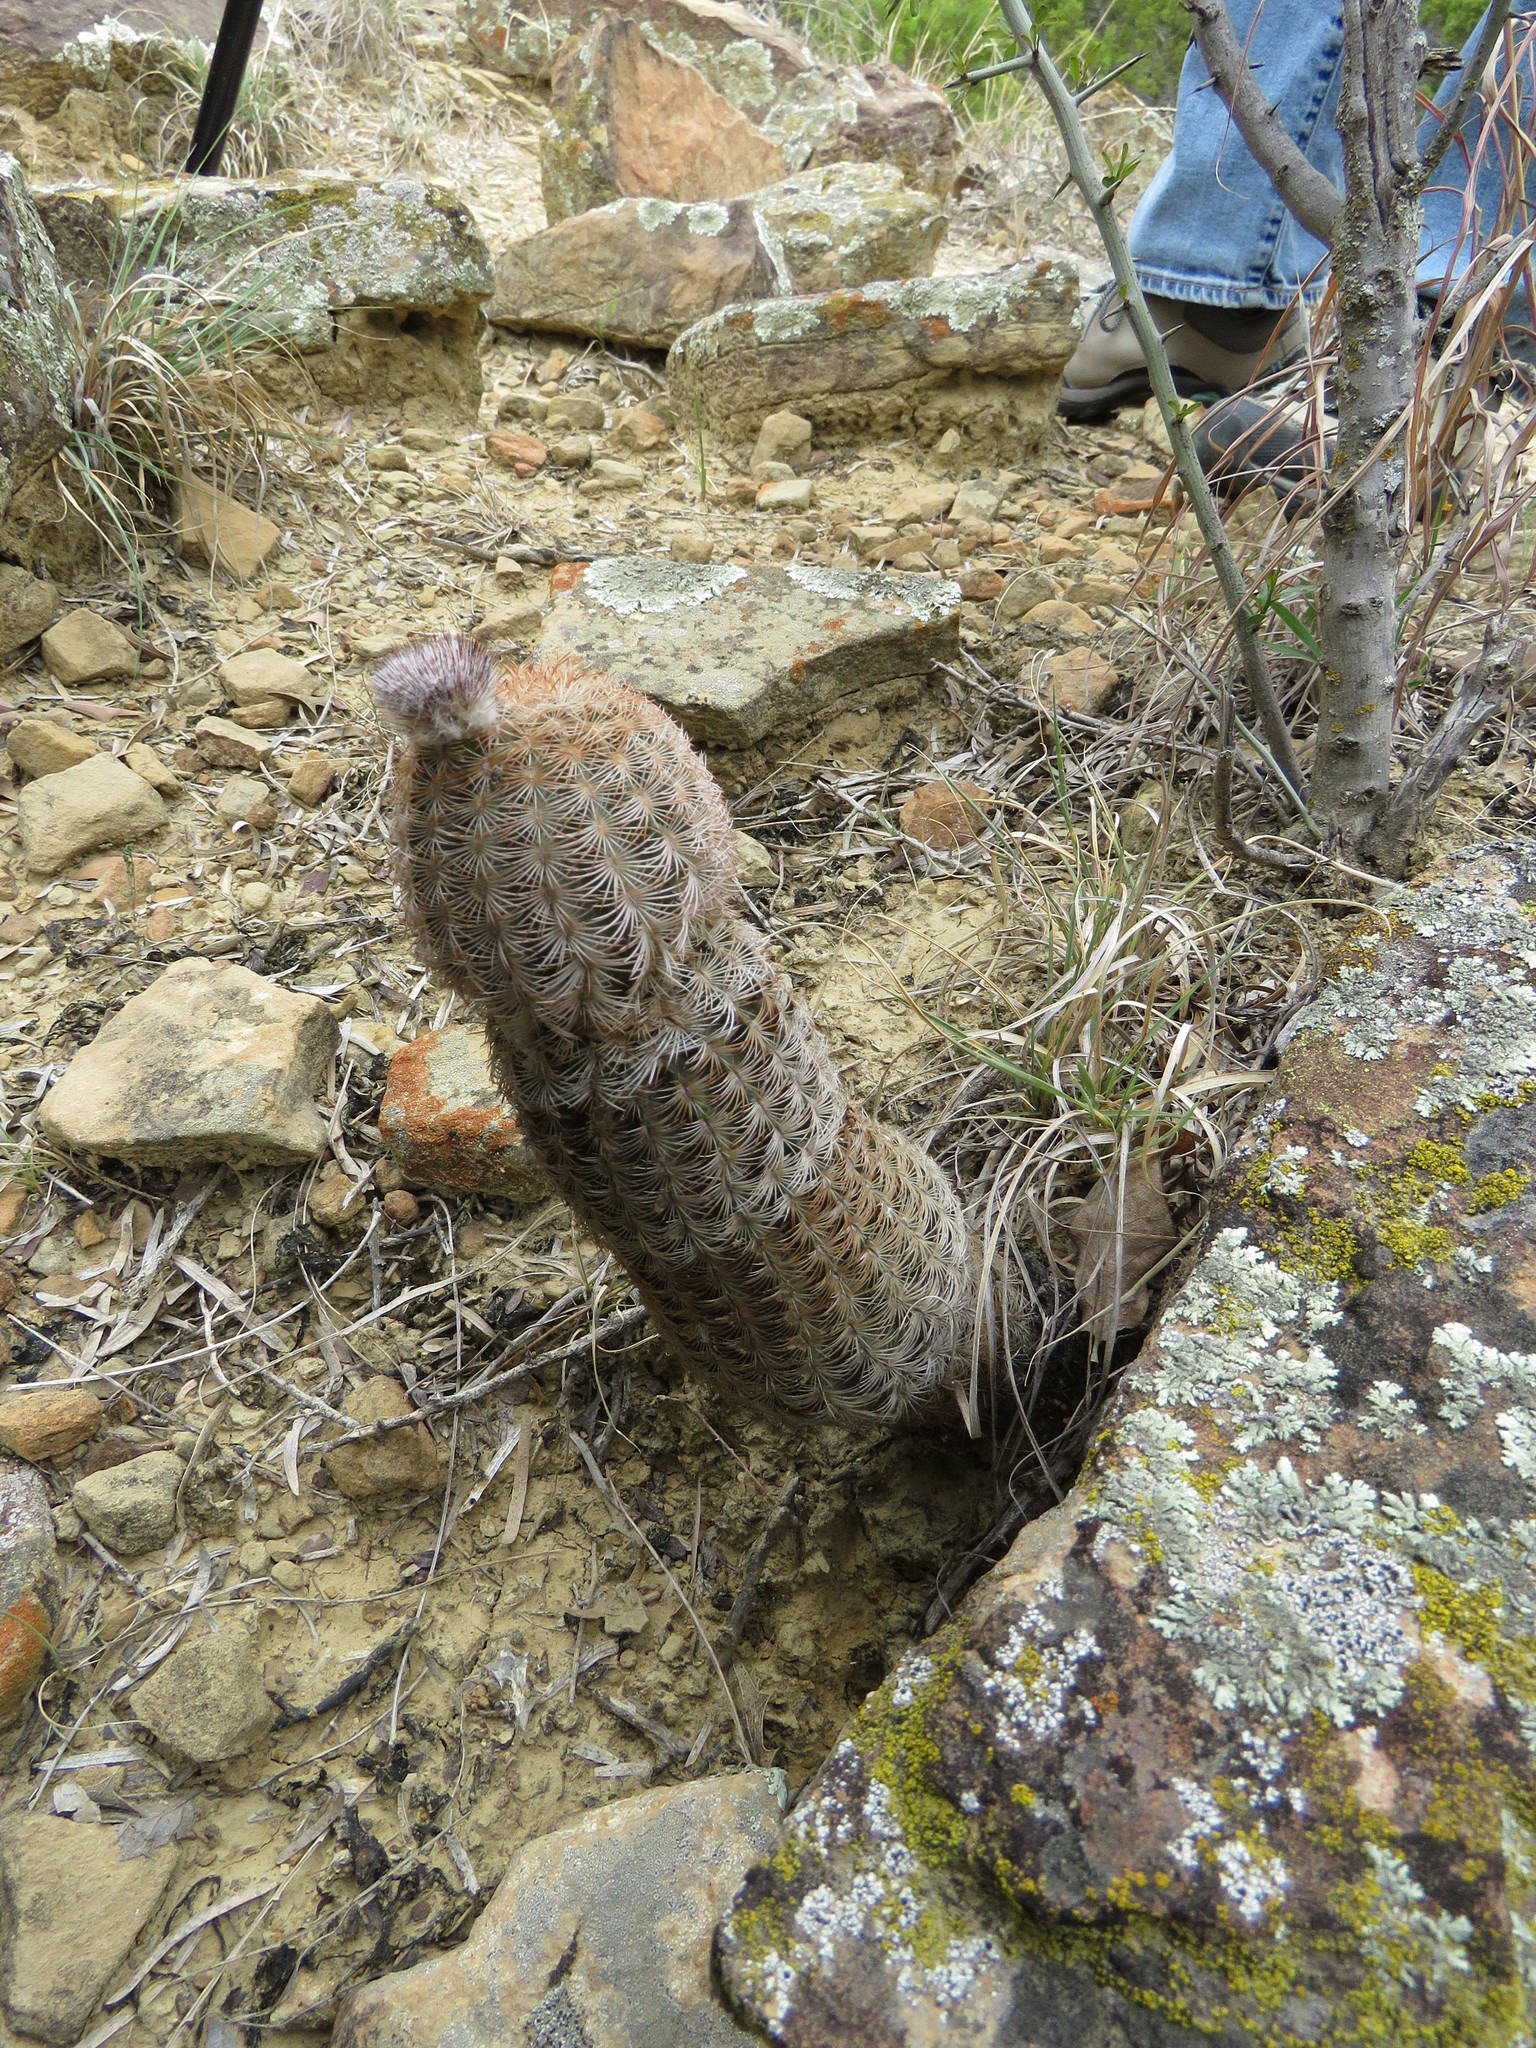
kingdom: Plantae
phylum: Tracheophyta
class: Magnoliopsida
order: Caryophyllales
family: Cactaceae
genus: Echinocereus
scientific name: Echinocereus reichenbachii
